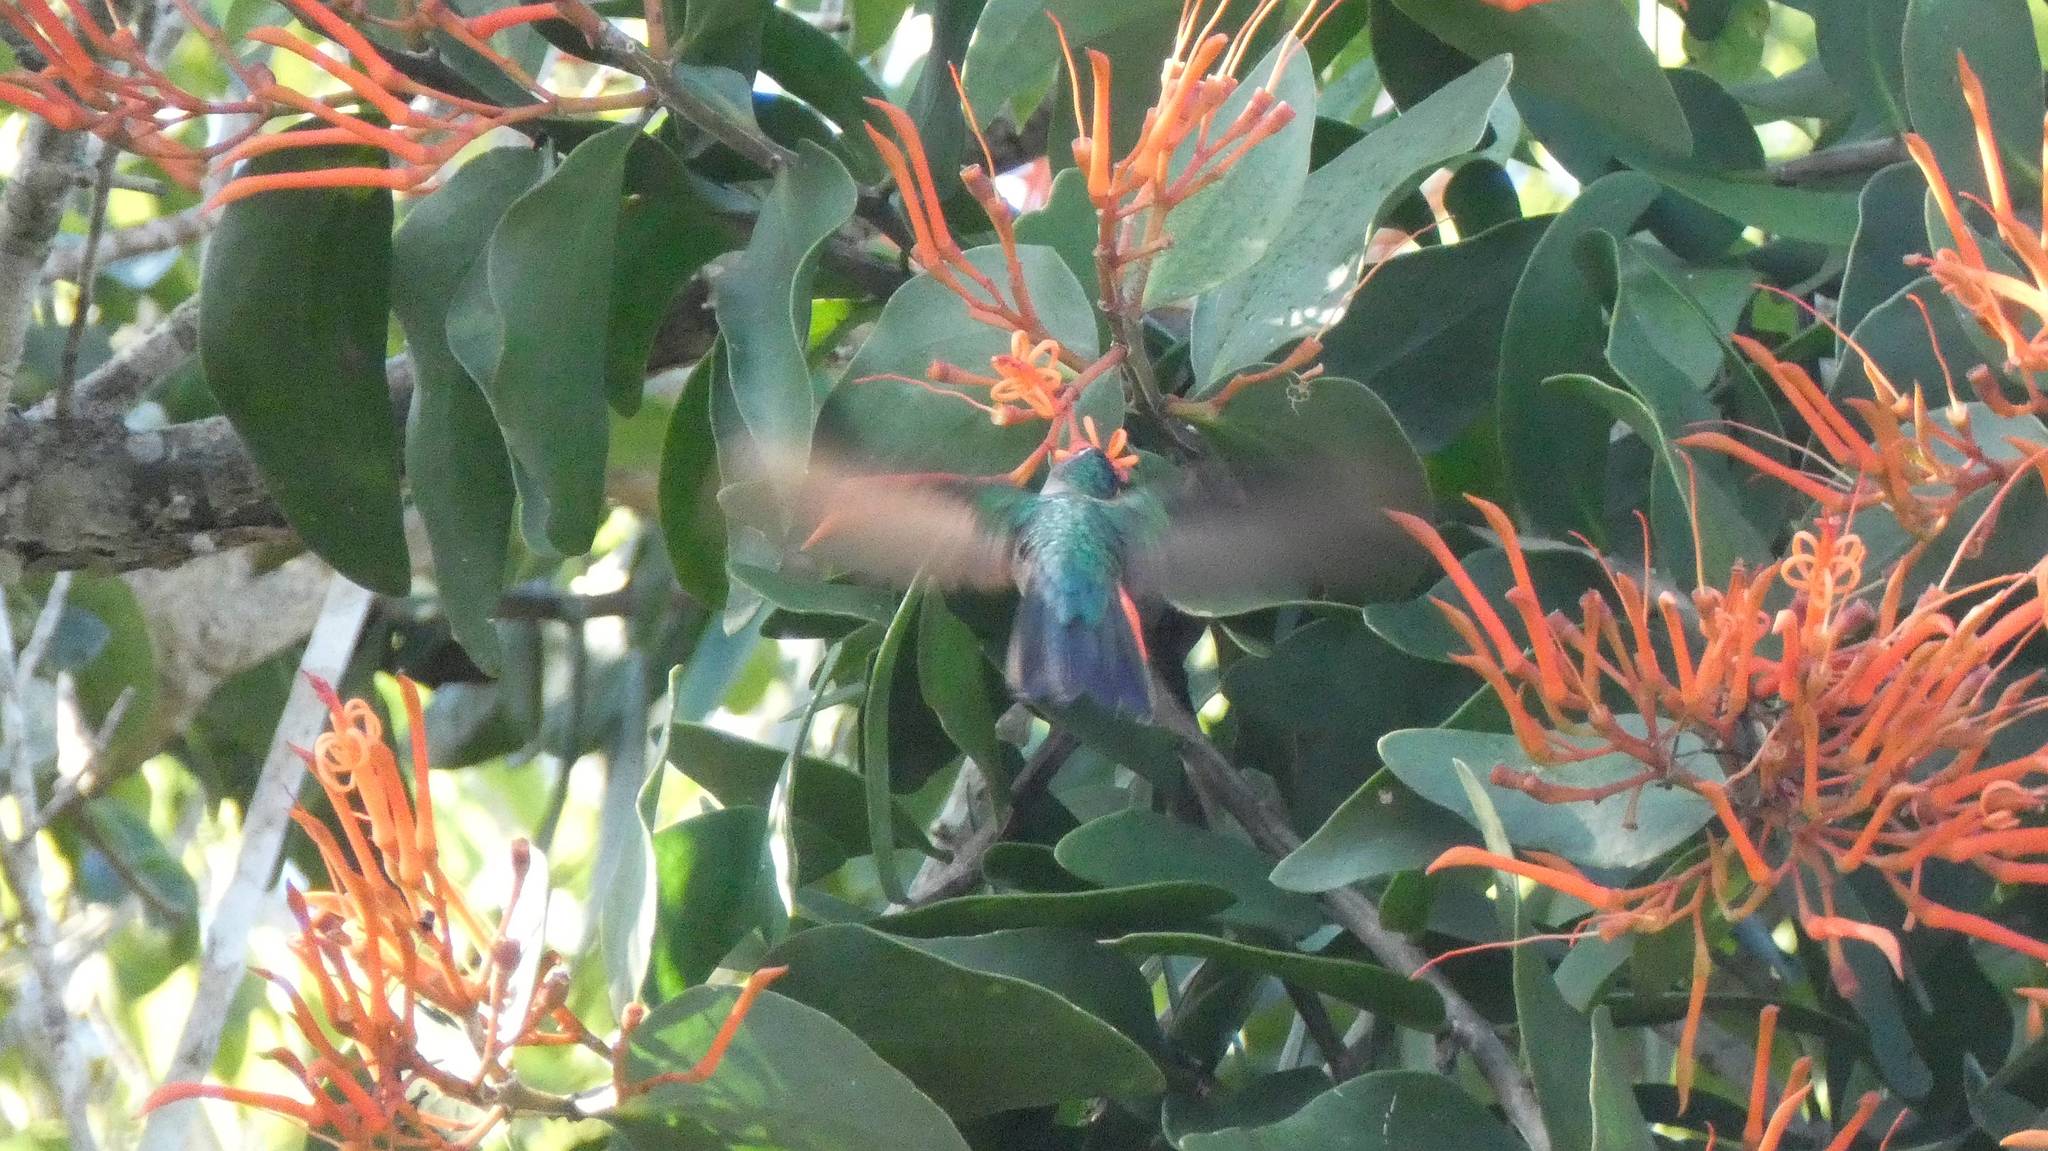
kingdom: Animalia
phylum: Chordata
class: Aves
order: Apodiformes
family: Trochilidae
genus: Pampa
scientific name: Pampa curvipennis
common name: Curve-winged sabrewing
